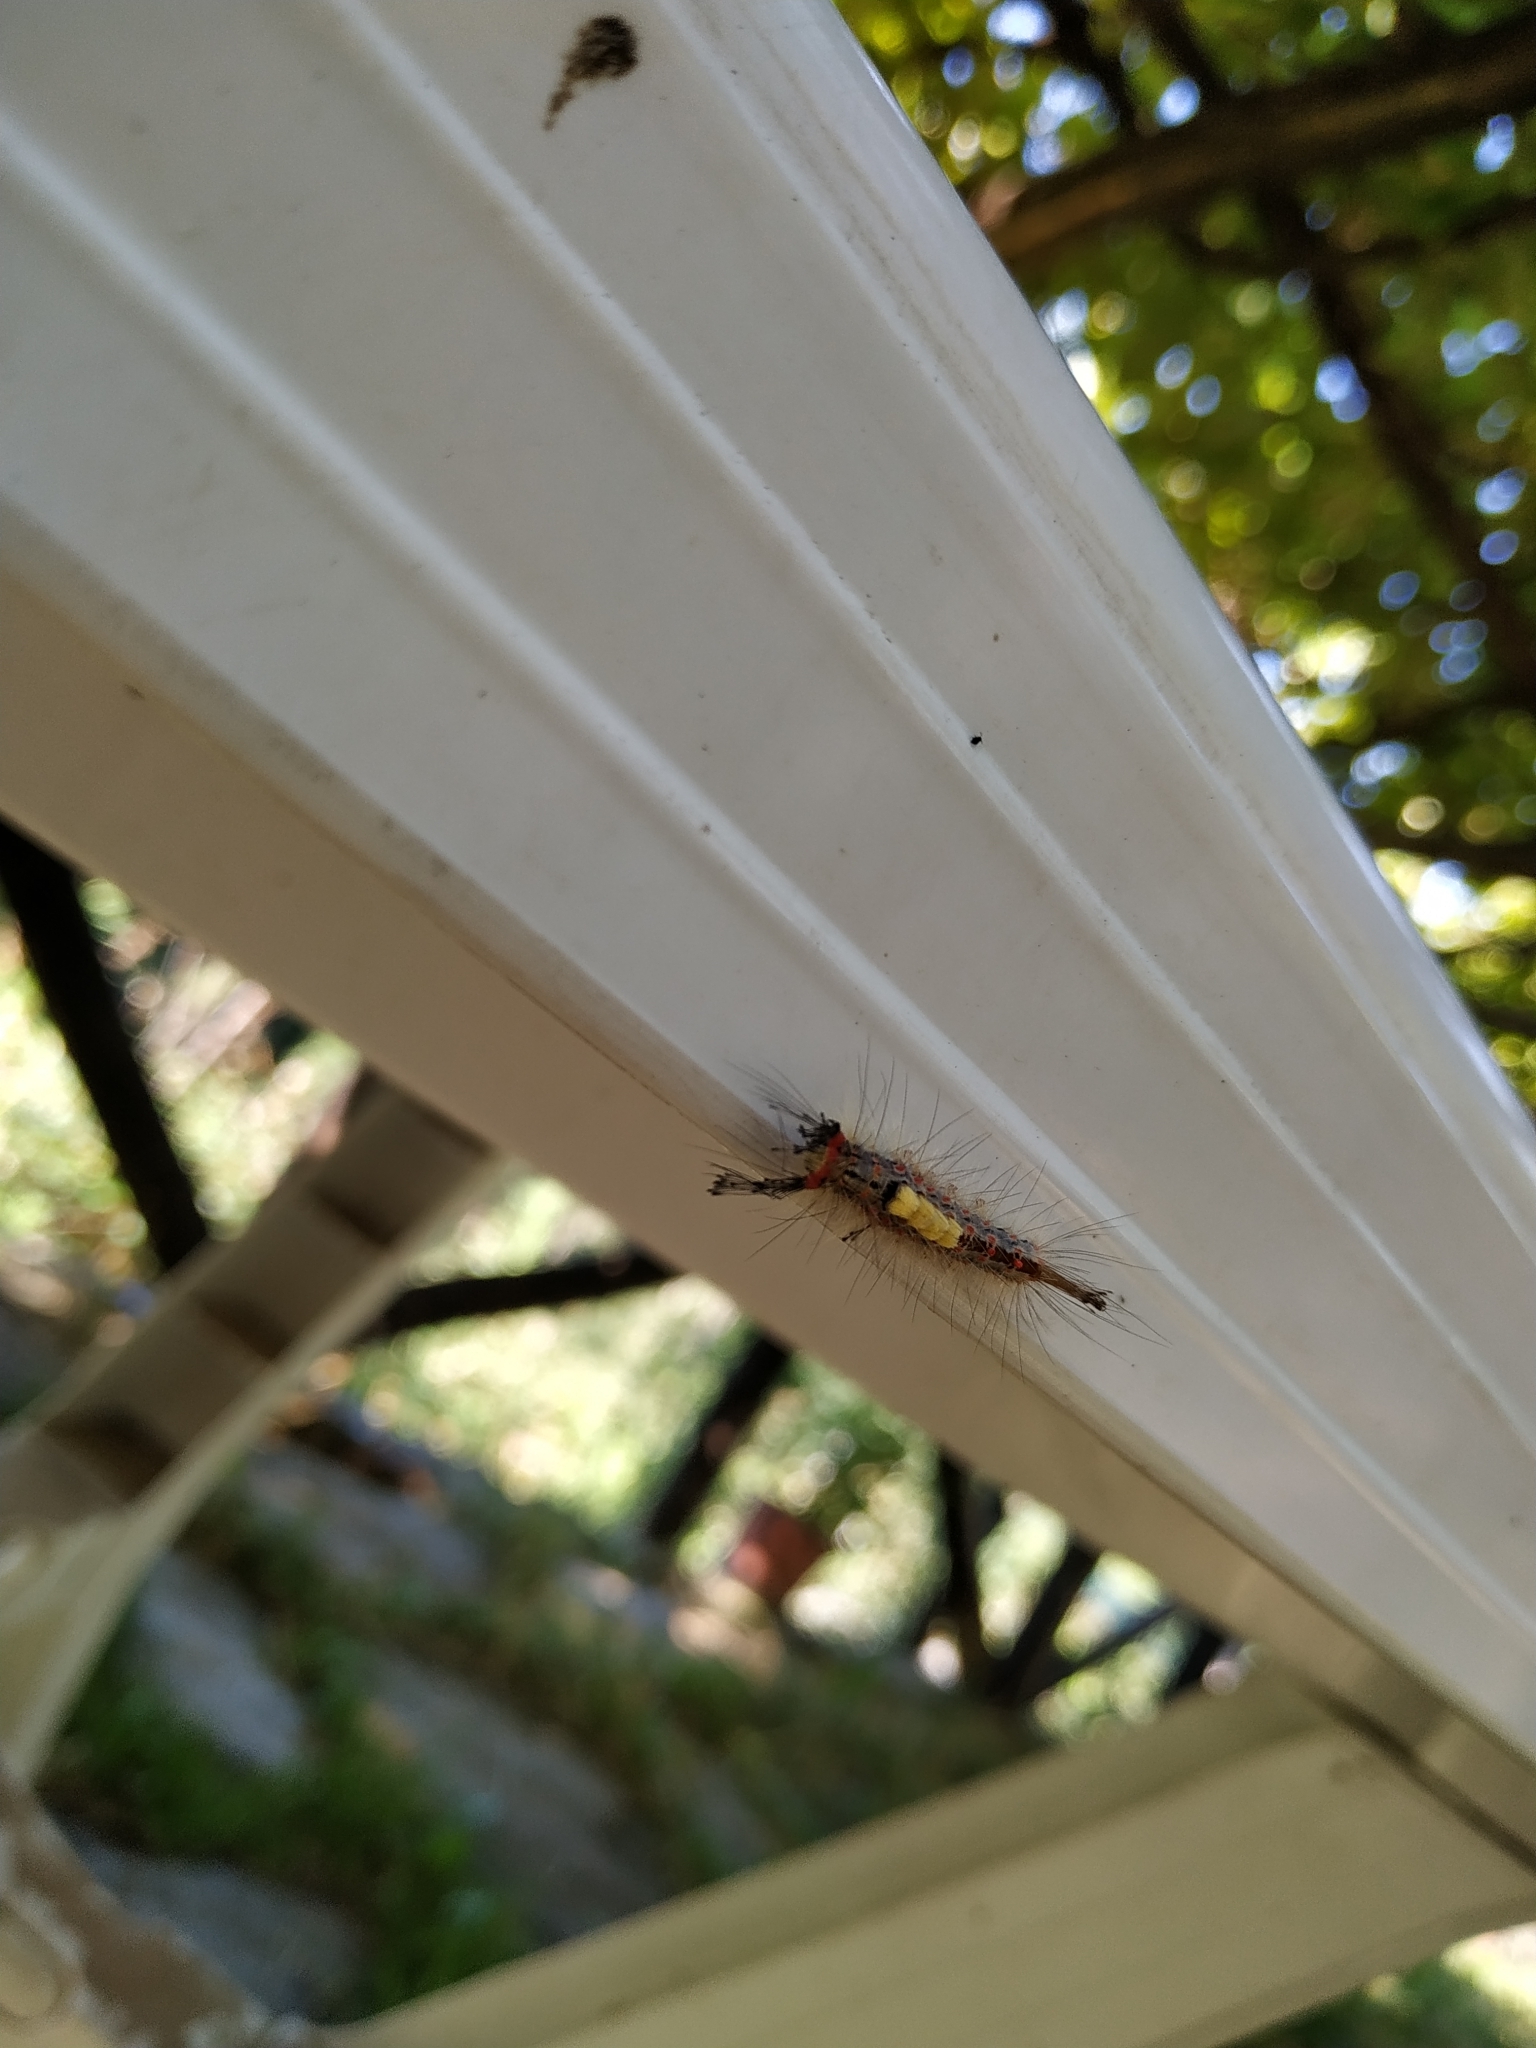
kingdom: Animalia
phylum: Arthropoda
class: Insecta
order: Lepidoptera
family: Erebidae
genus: Orgyia
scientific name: Orgyia antiqua
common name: Vapourer
